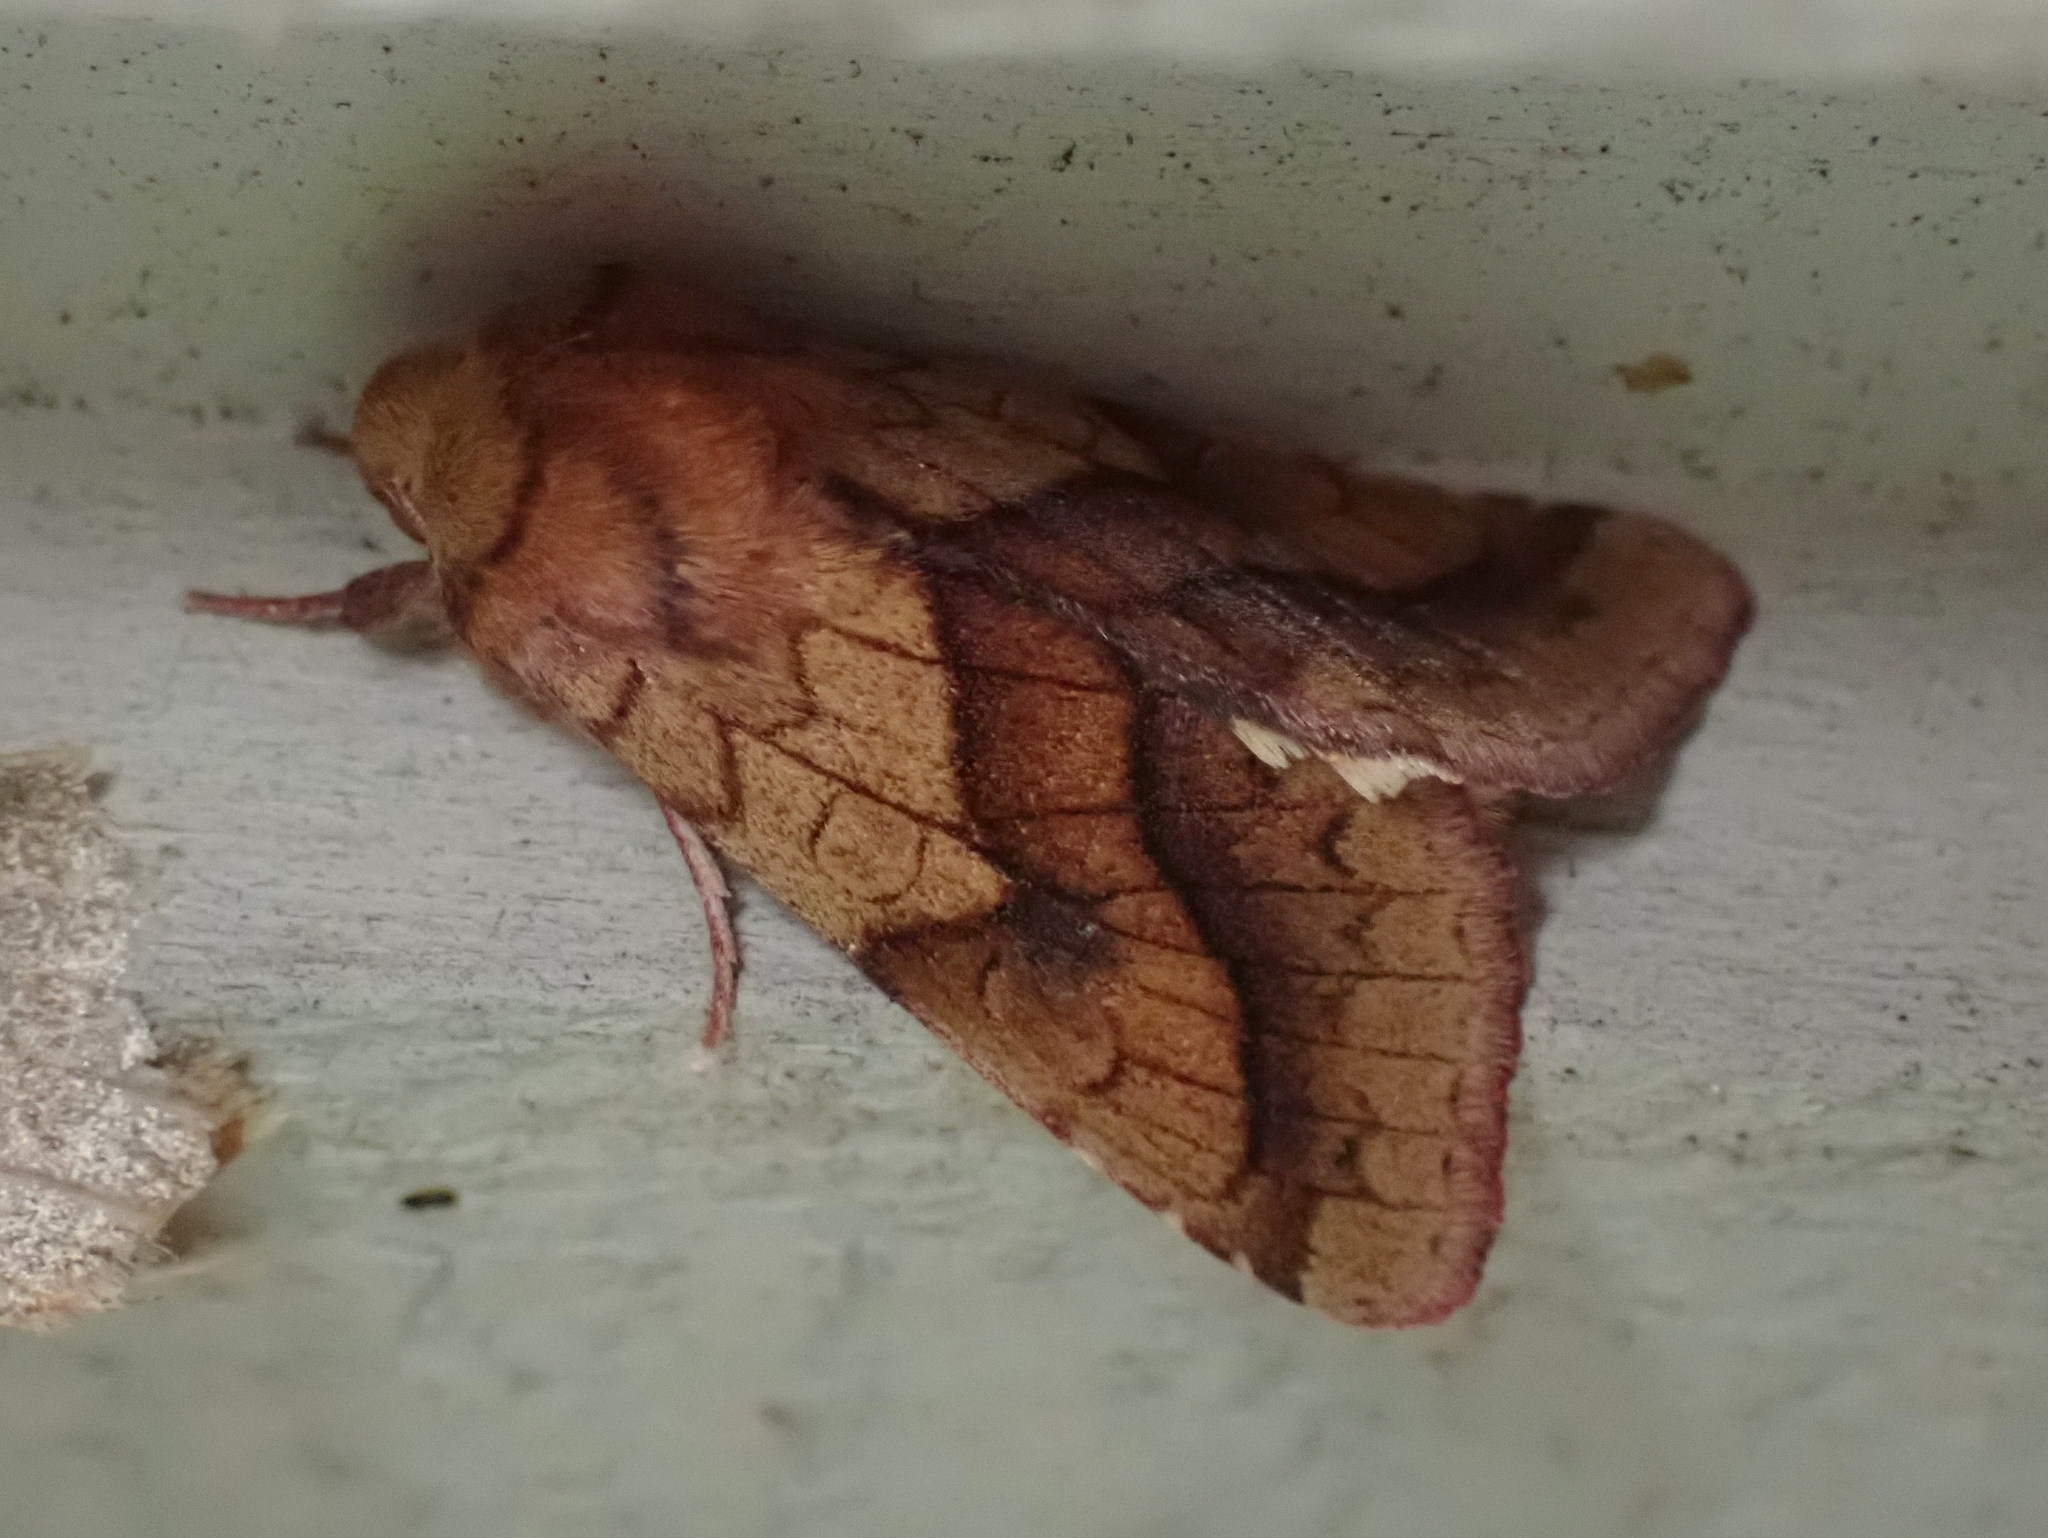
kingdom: Animalia
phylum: Arthropoda
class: Insecta
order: Lepidoptera
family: Noctuidae
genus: Pyrrhia
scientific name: Pyrrhia exprimens
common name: Purple-lined sallow
